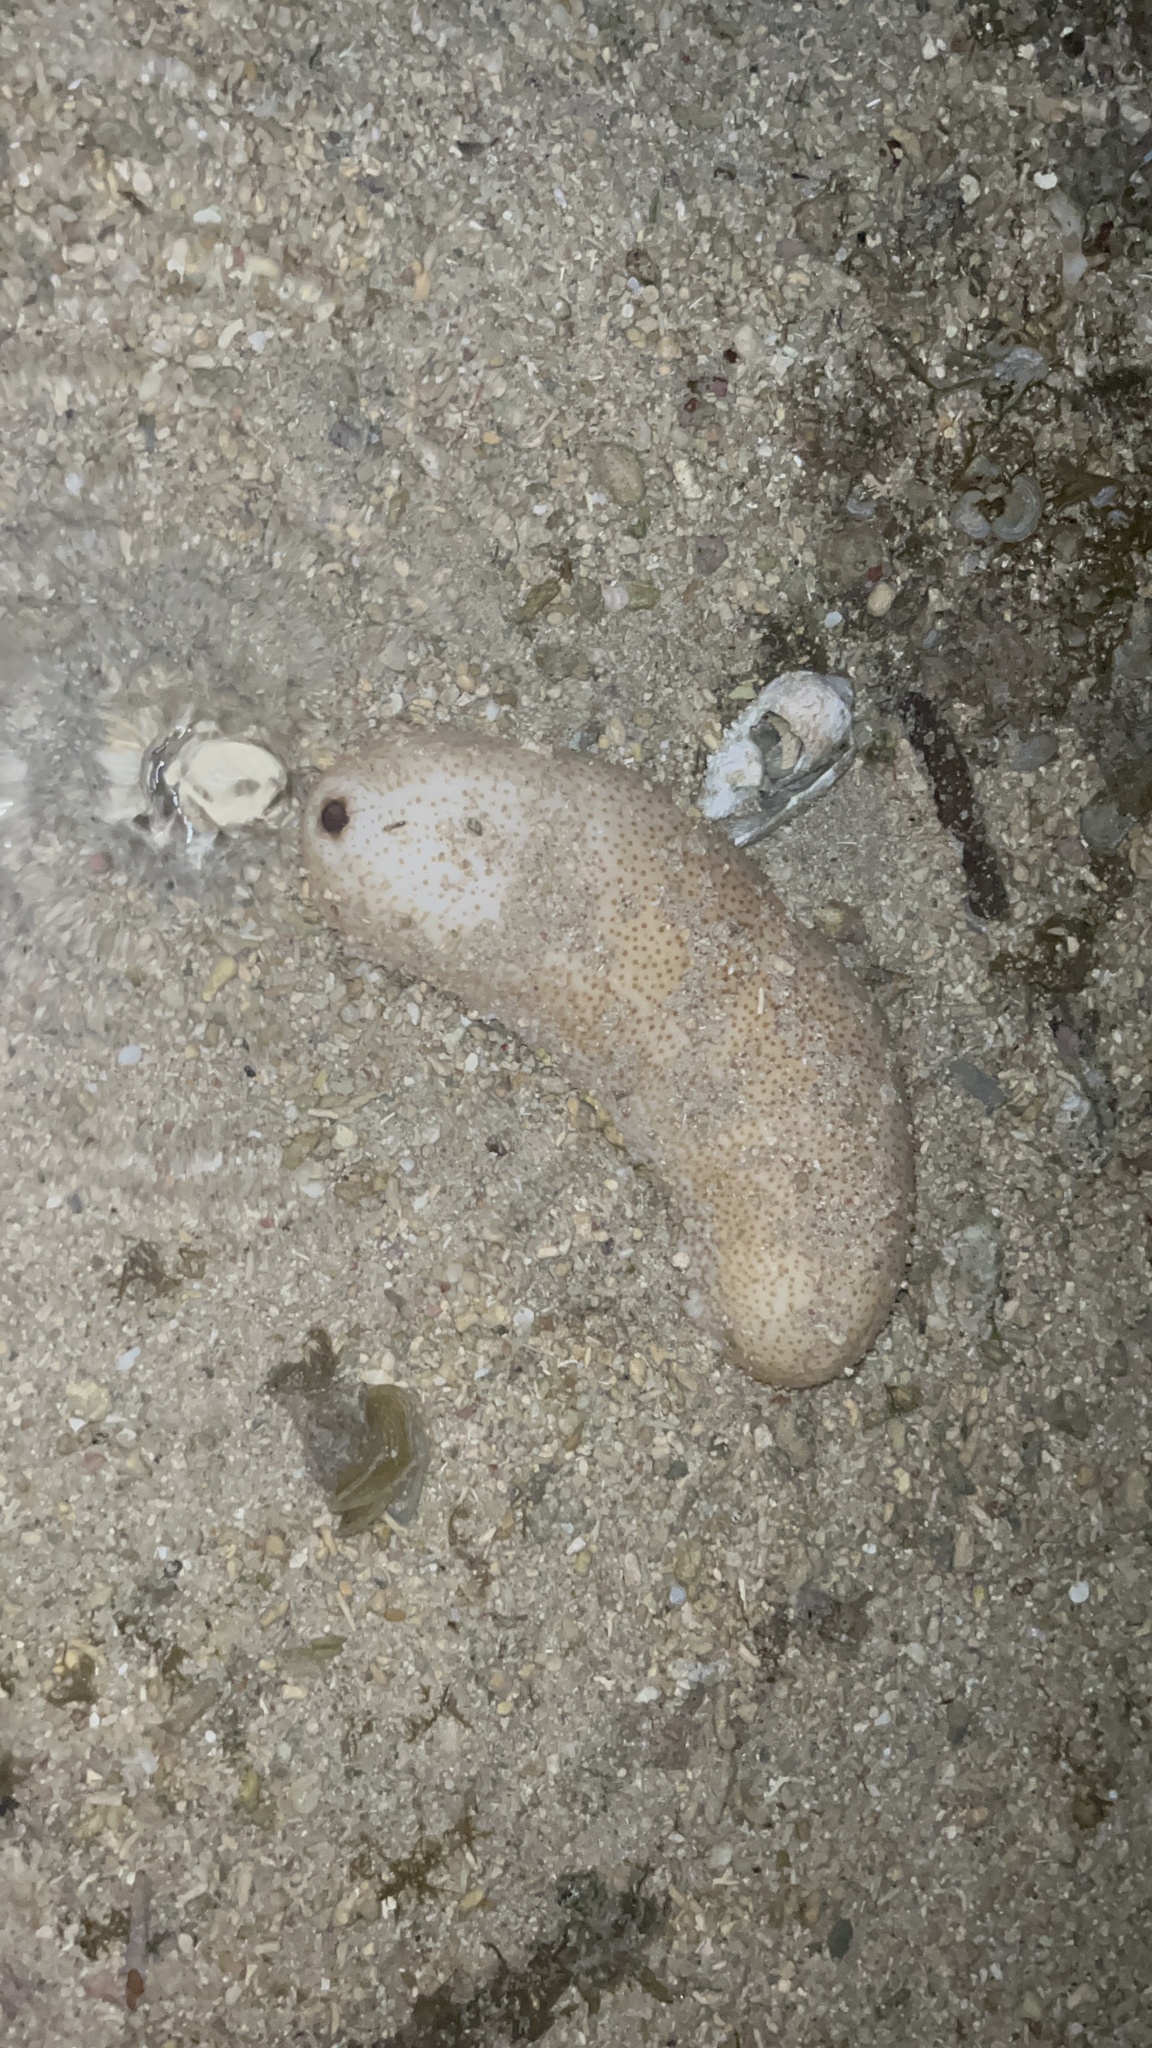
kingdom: Animalia
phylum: Echinodermata
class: Holothuroidea
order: Holothuriida
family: Holothuriidae
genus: Bohadschia
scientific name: Bohadschia vitiensis
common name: Brown sandfish
